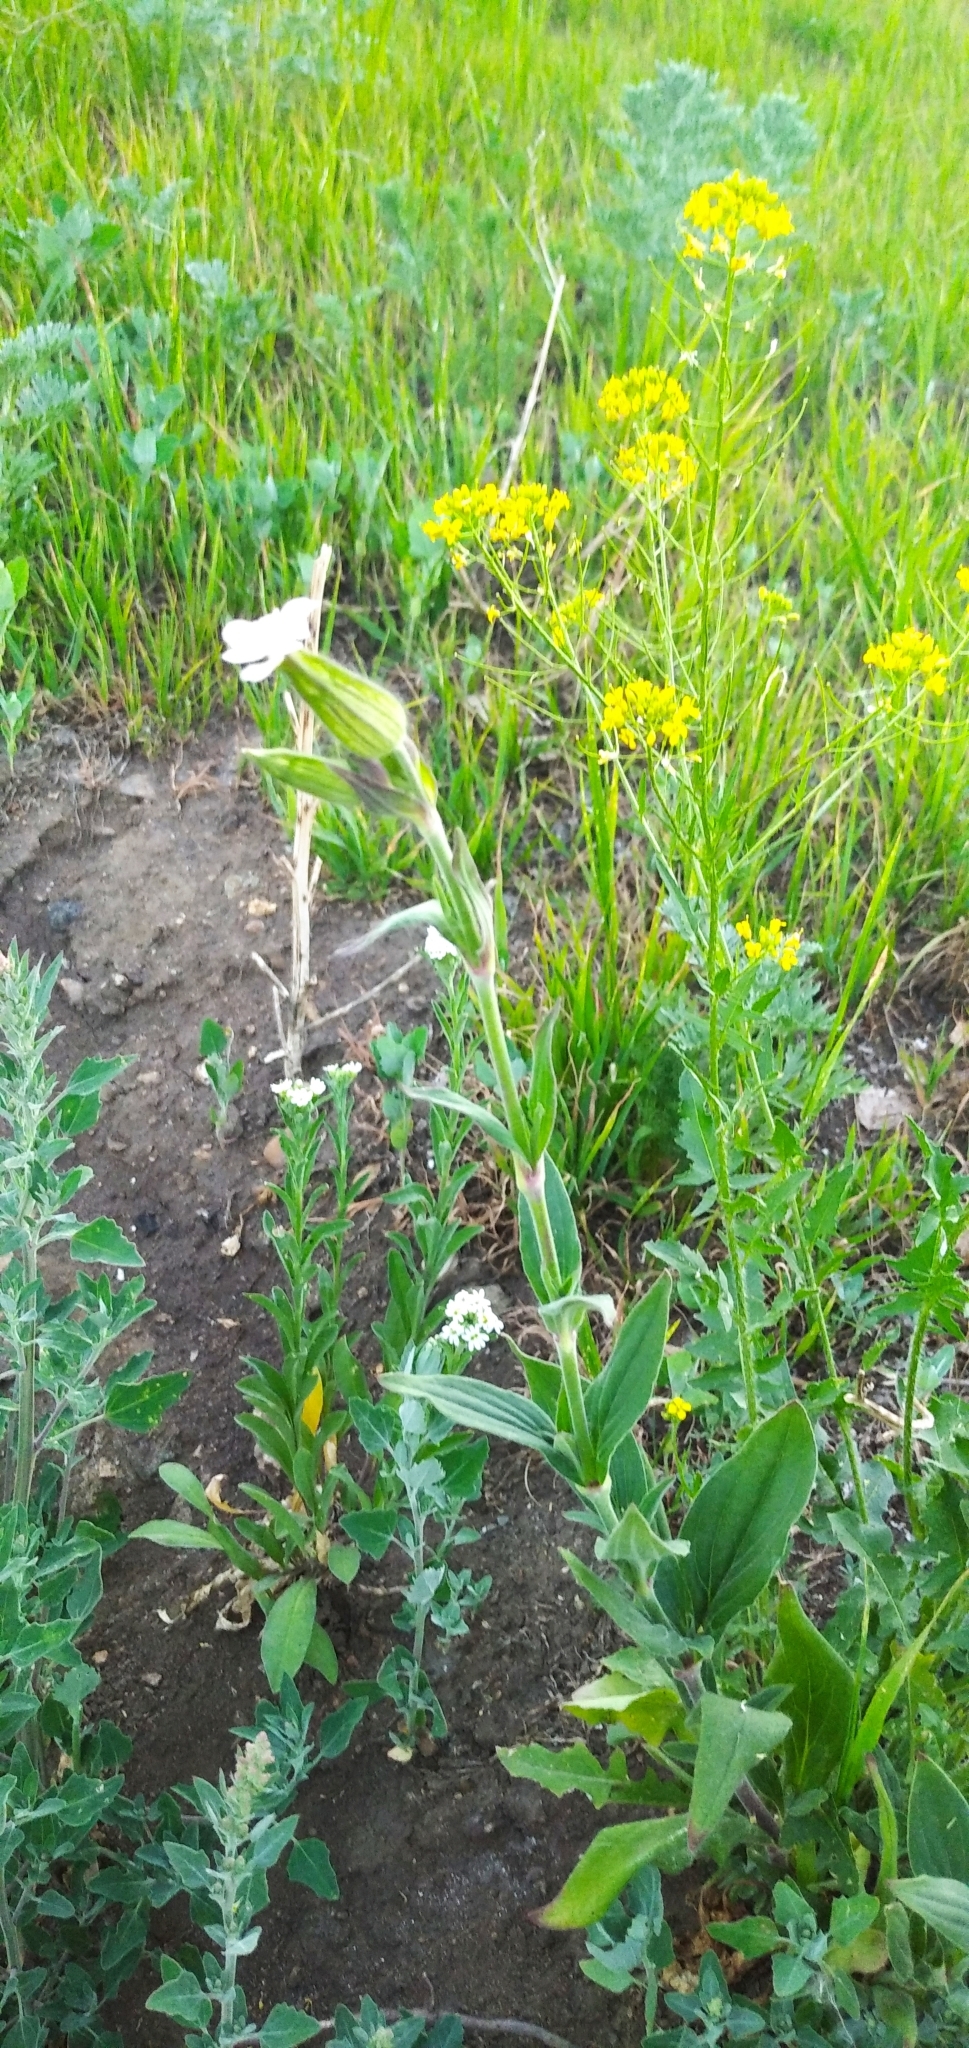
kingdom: Plantae
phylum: Tracheophyta
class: Magnoliopsida
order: Caryophyllales
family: Caryophyllaceae
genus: Silene
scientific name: Silene latifolia
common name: White campion
